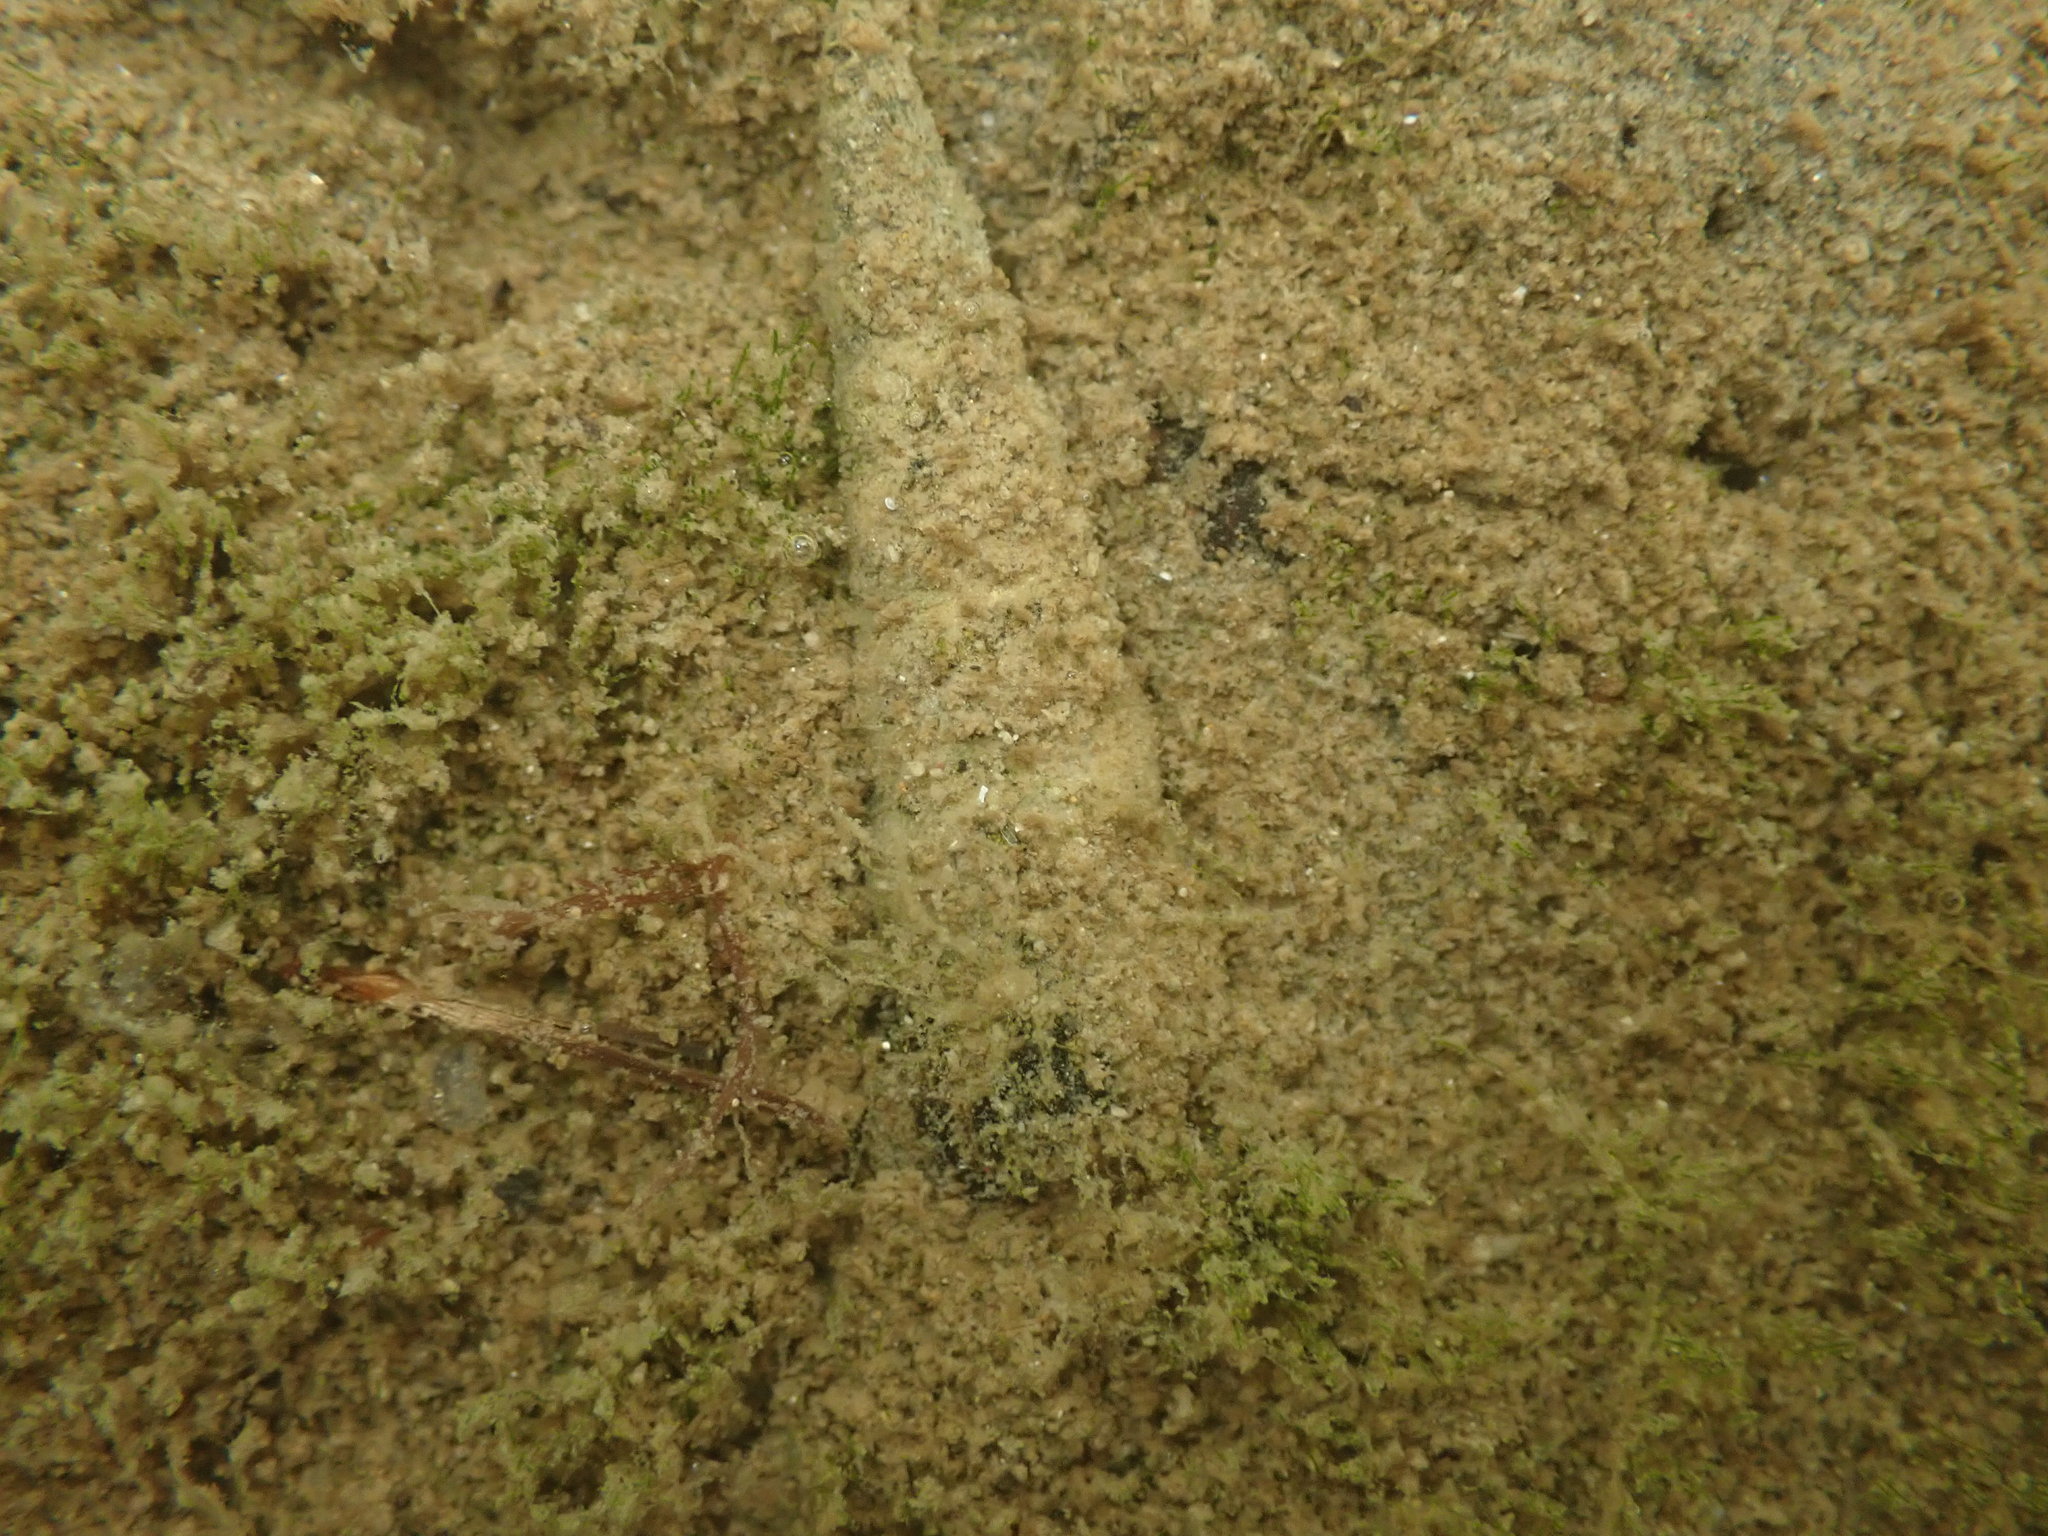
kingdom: Animalia
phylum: Mollusca
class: Gastropoda
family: Batillariidae
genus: Zeacumantus
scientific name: Zeacumantus lutulentus
